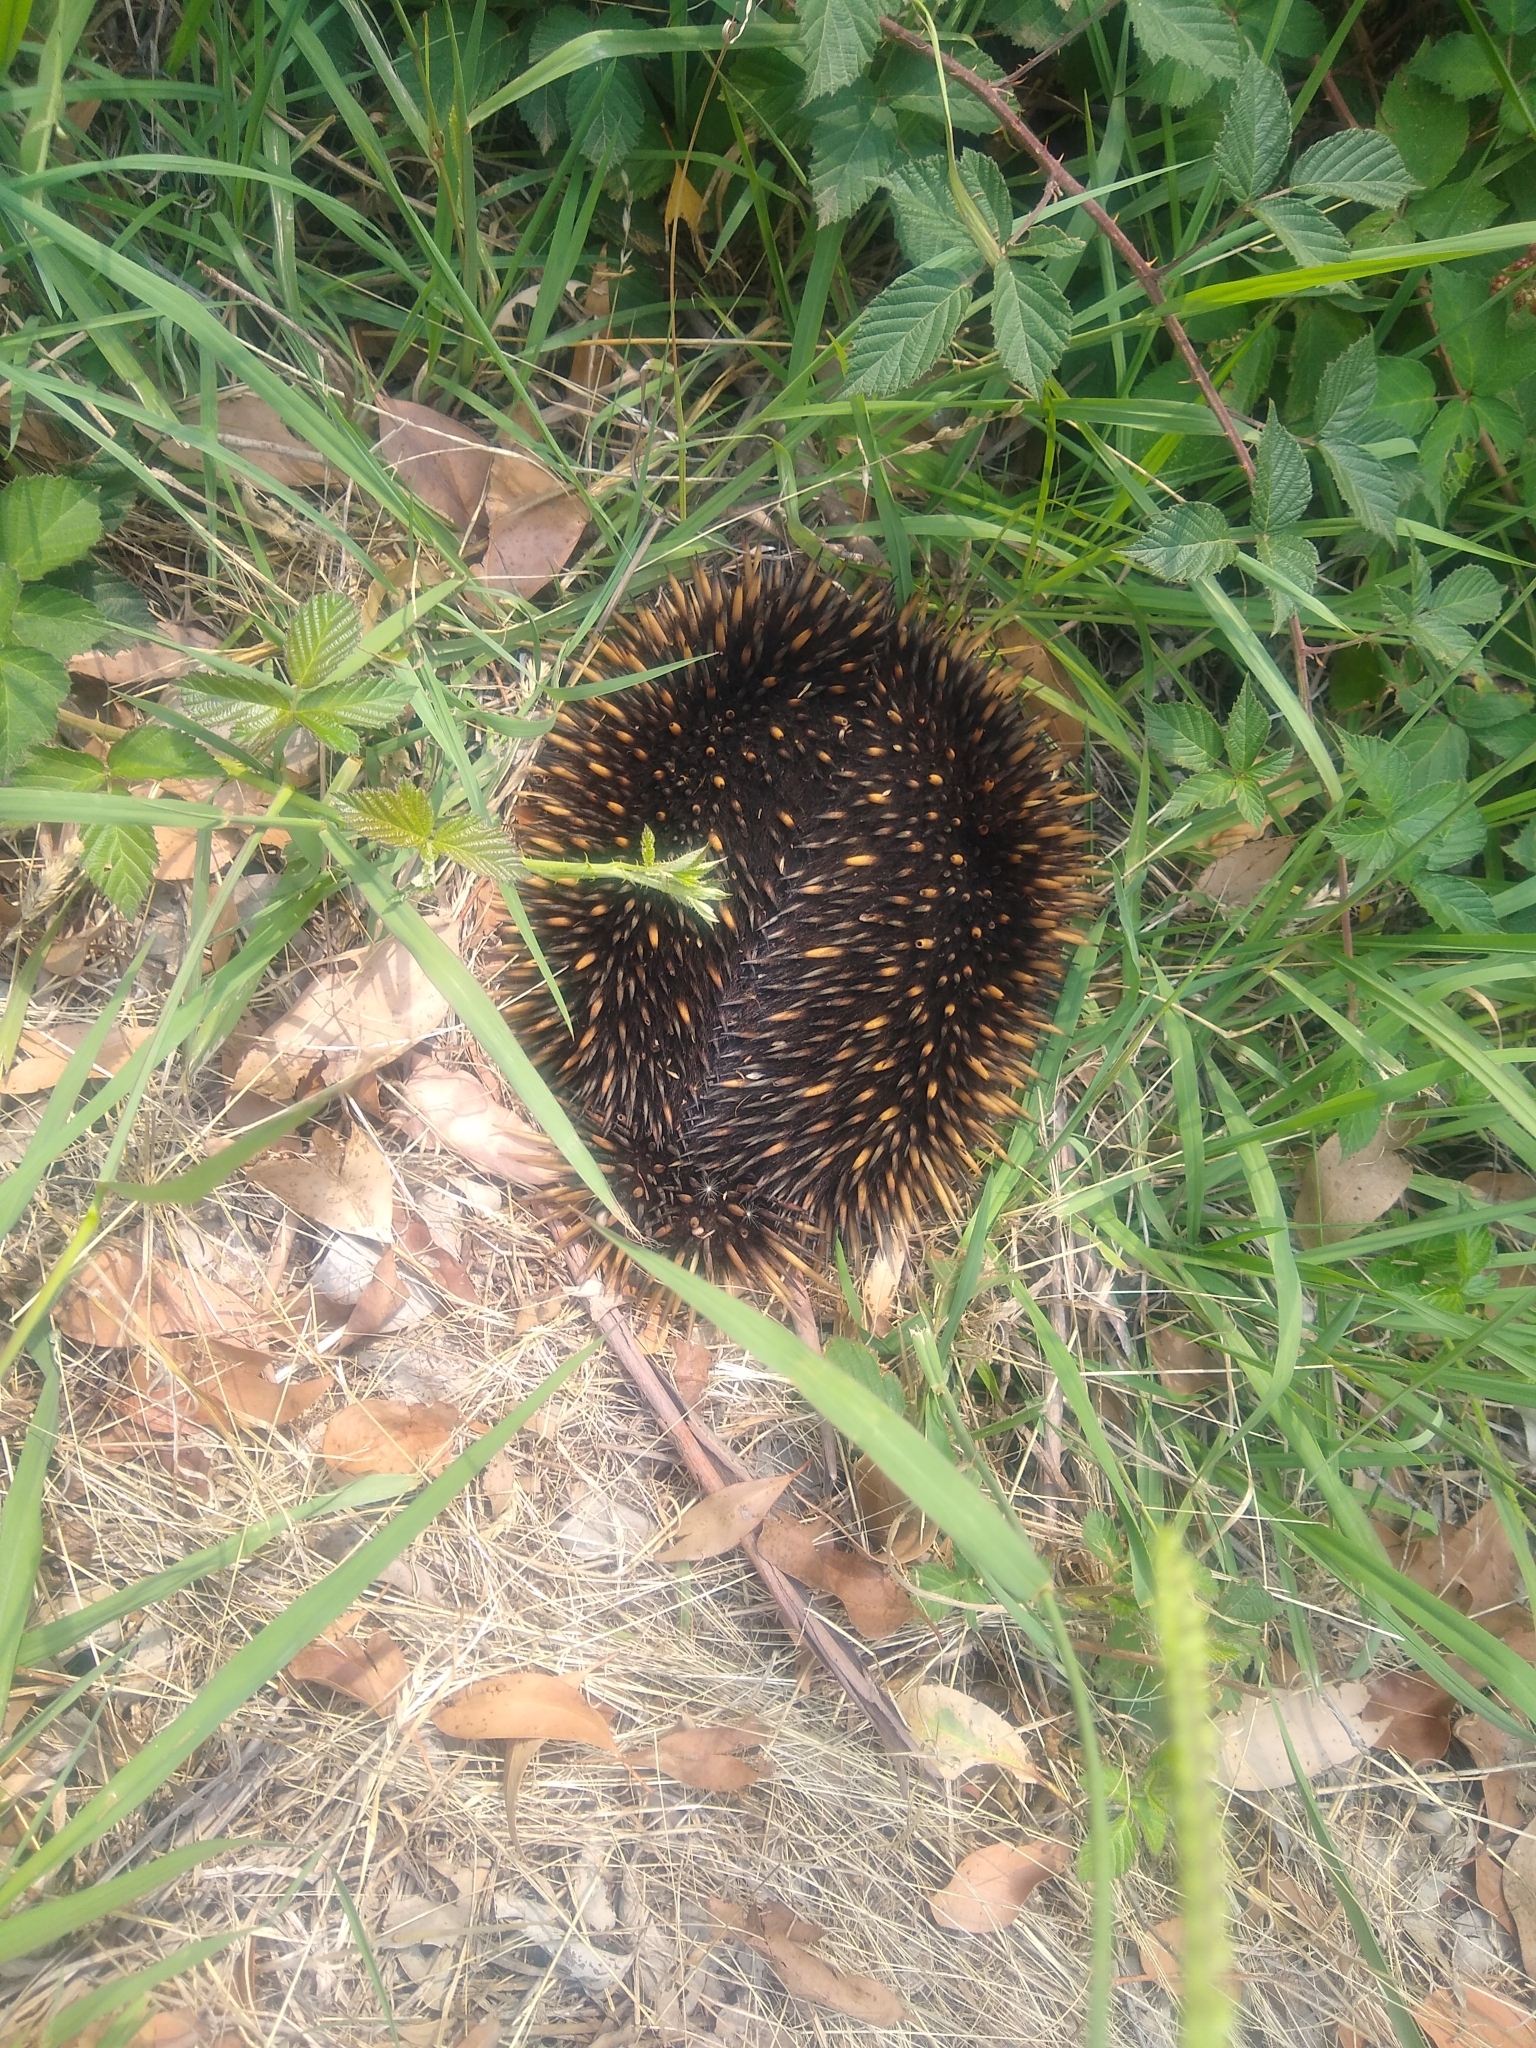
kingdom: Animalia
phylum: Chordata
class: Mammalia
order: Monotremata
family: Tachyglossidae
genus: Tachyglossus
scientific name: Tachyglossus aculeatus
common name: Short-beaked echidna
